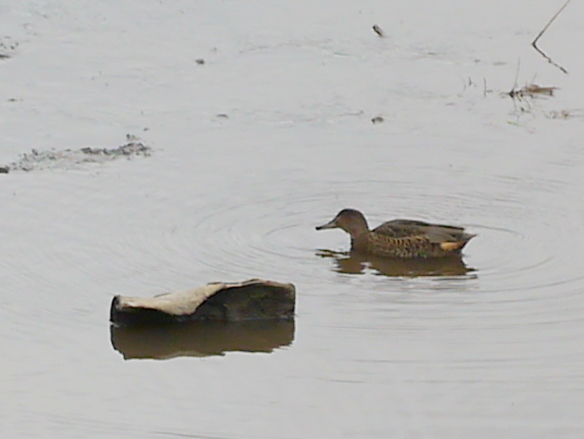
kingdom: Animalia
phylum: Chordata
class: Aves
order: Anseriformes
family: Anatidae
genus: Anas
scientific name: Anas crecca
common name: Eurasian teal
